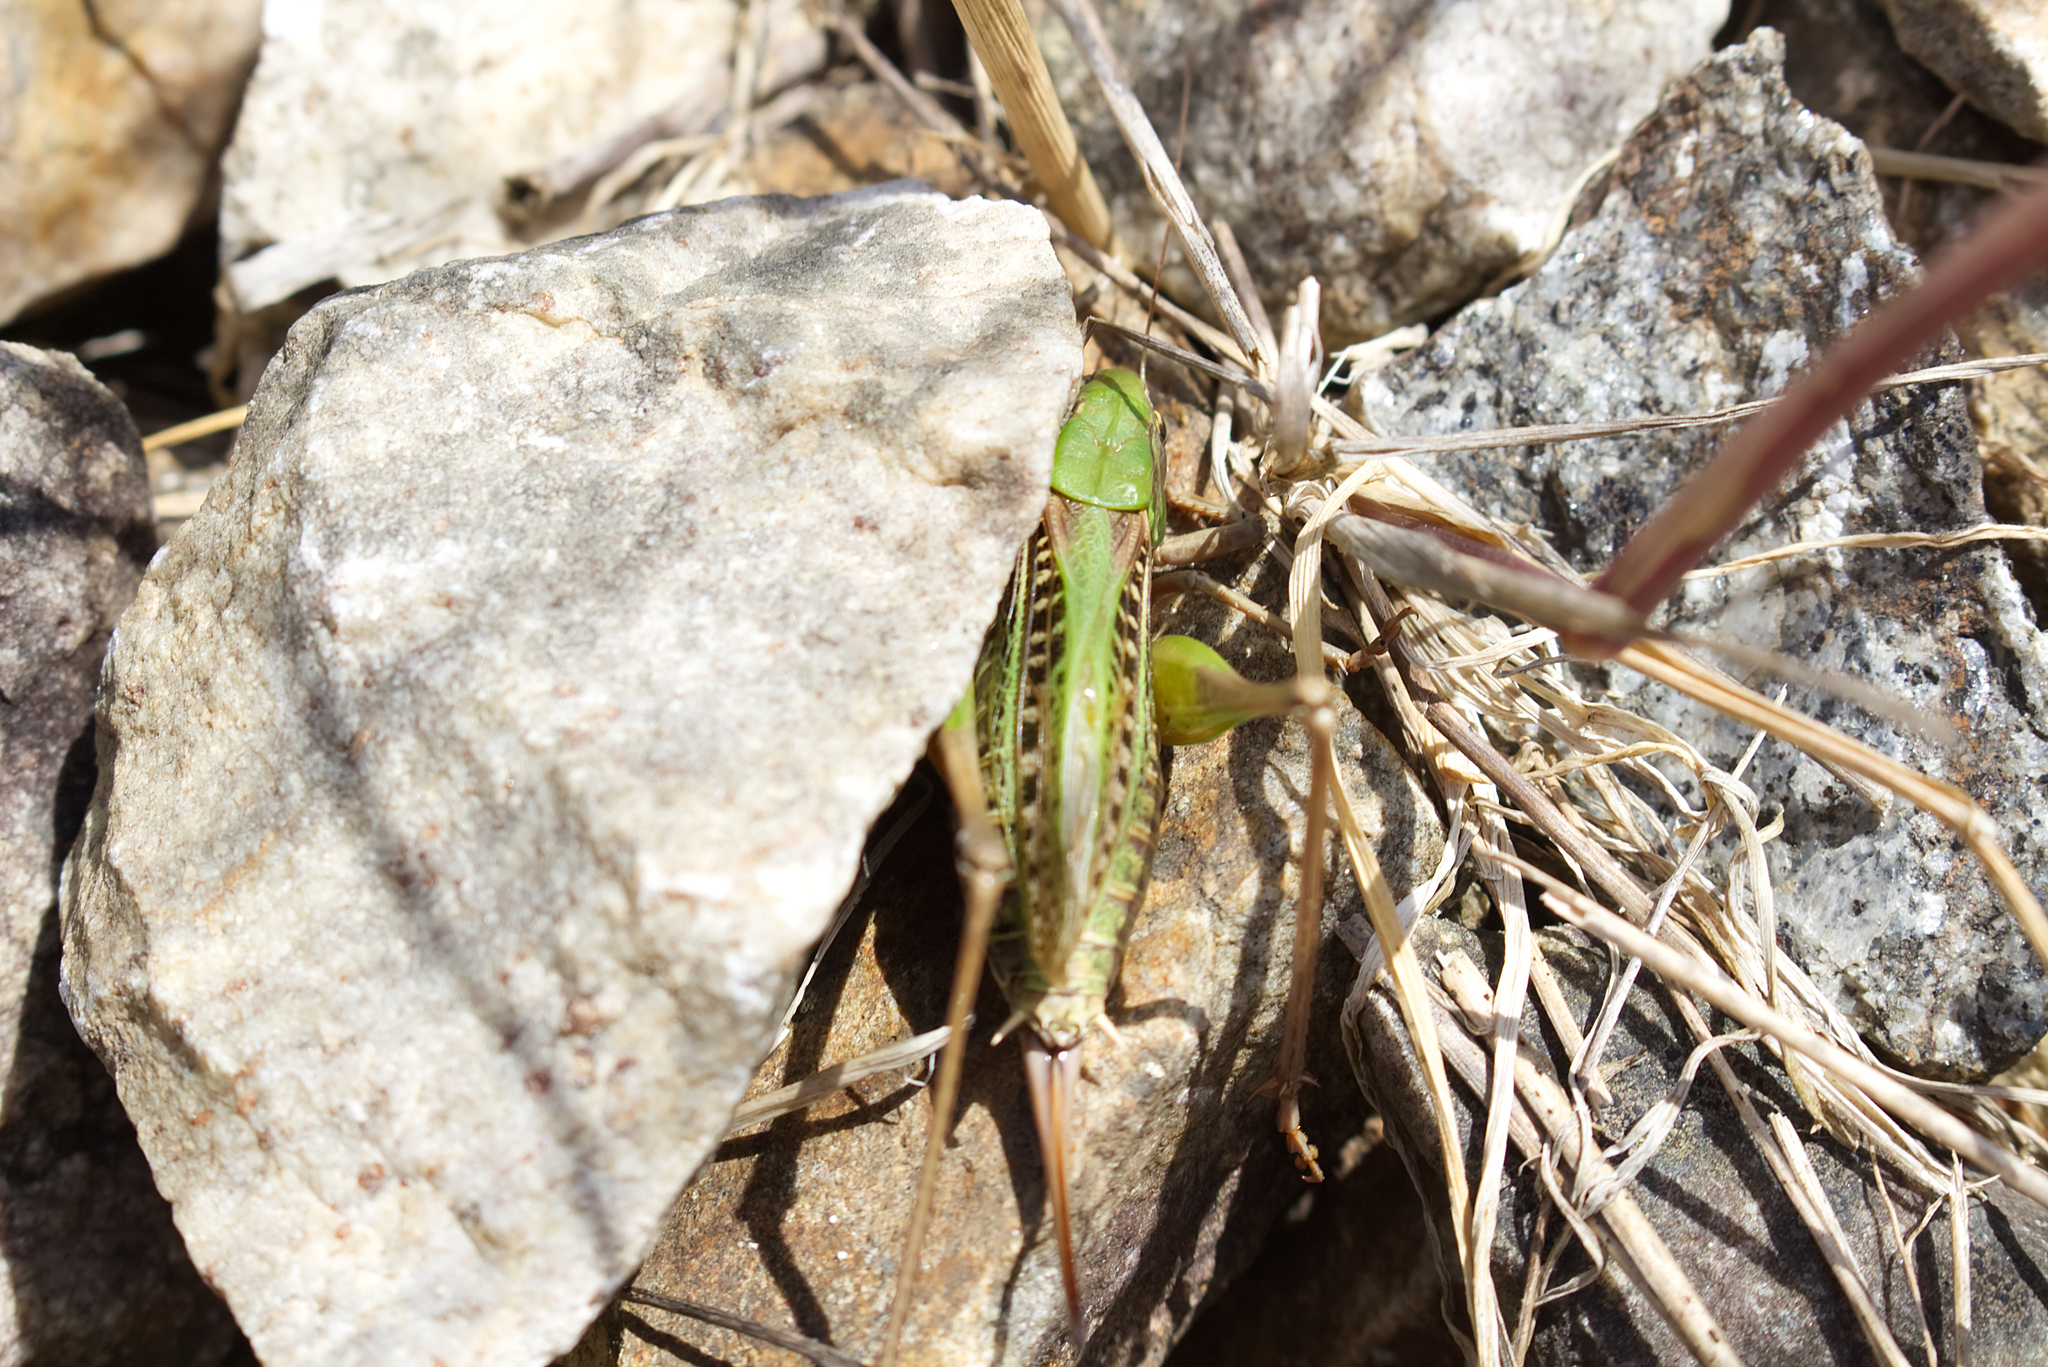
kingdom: Animalia
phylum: Arthropoda
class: Insecta
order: Orthoptera
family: Tettigoniidae
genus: Decticus
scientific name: Decticus verrucivorus
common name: Wart-biter
